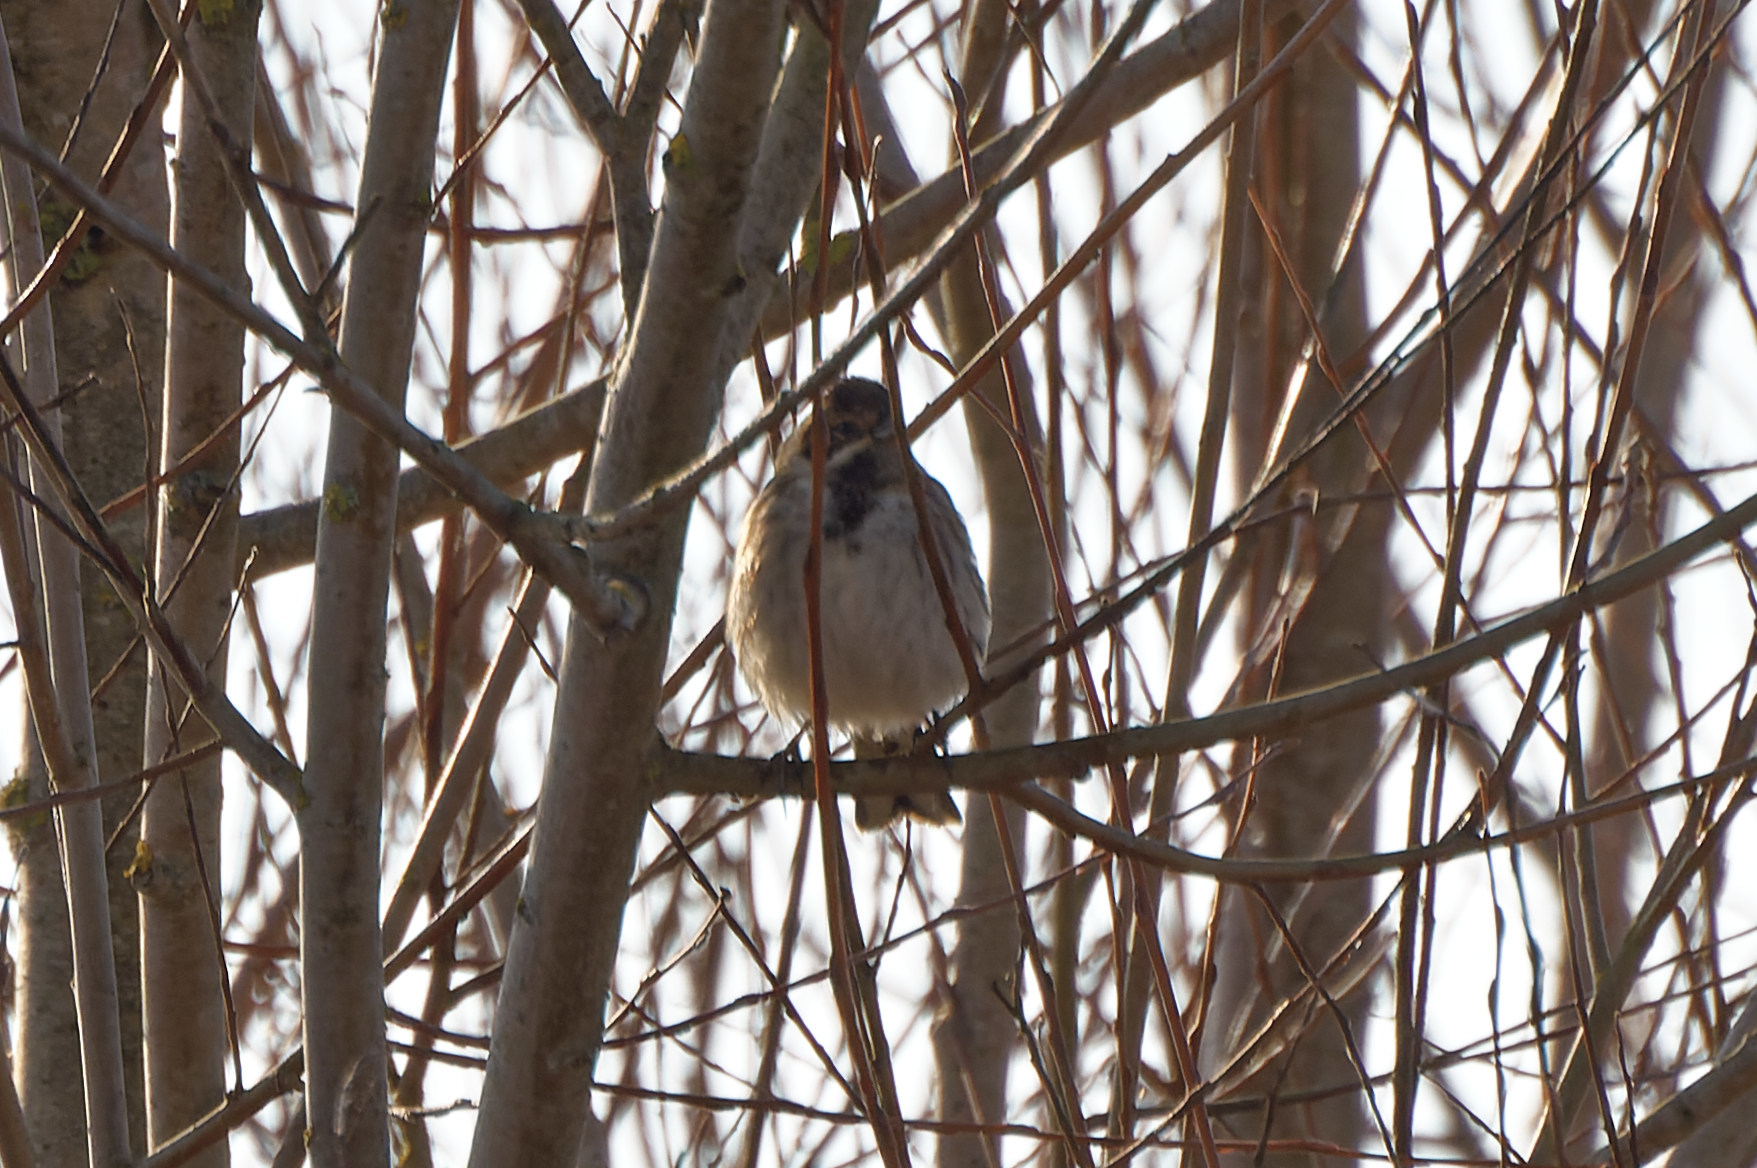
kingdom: Animalia
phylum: Chordata
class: Aves
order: Passeriformes
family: Emberizidae
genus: Emberiza
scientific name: Emberiza schoeniclus
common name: Reed bunting
